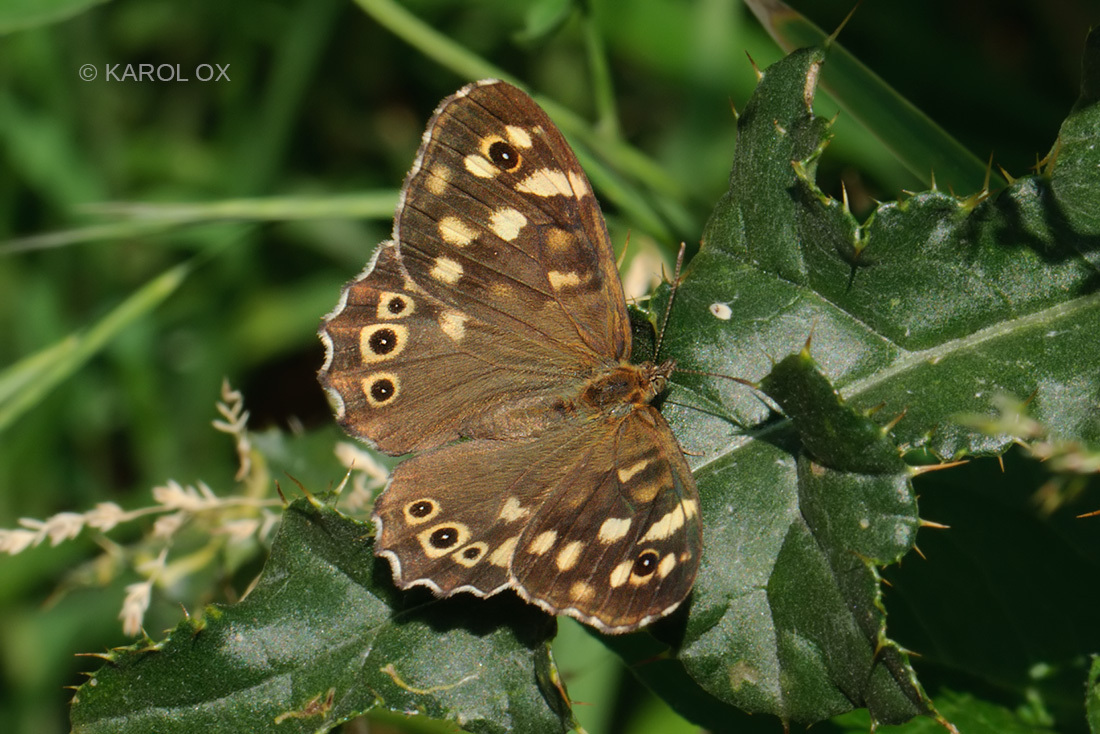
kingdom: Animalia
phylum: Arthropoda
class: Insecta
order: Lepidoptera
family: Nymphalidae
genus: Pararge
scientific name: Pararge aegeria
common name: Speckled wood
